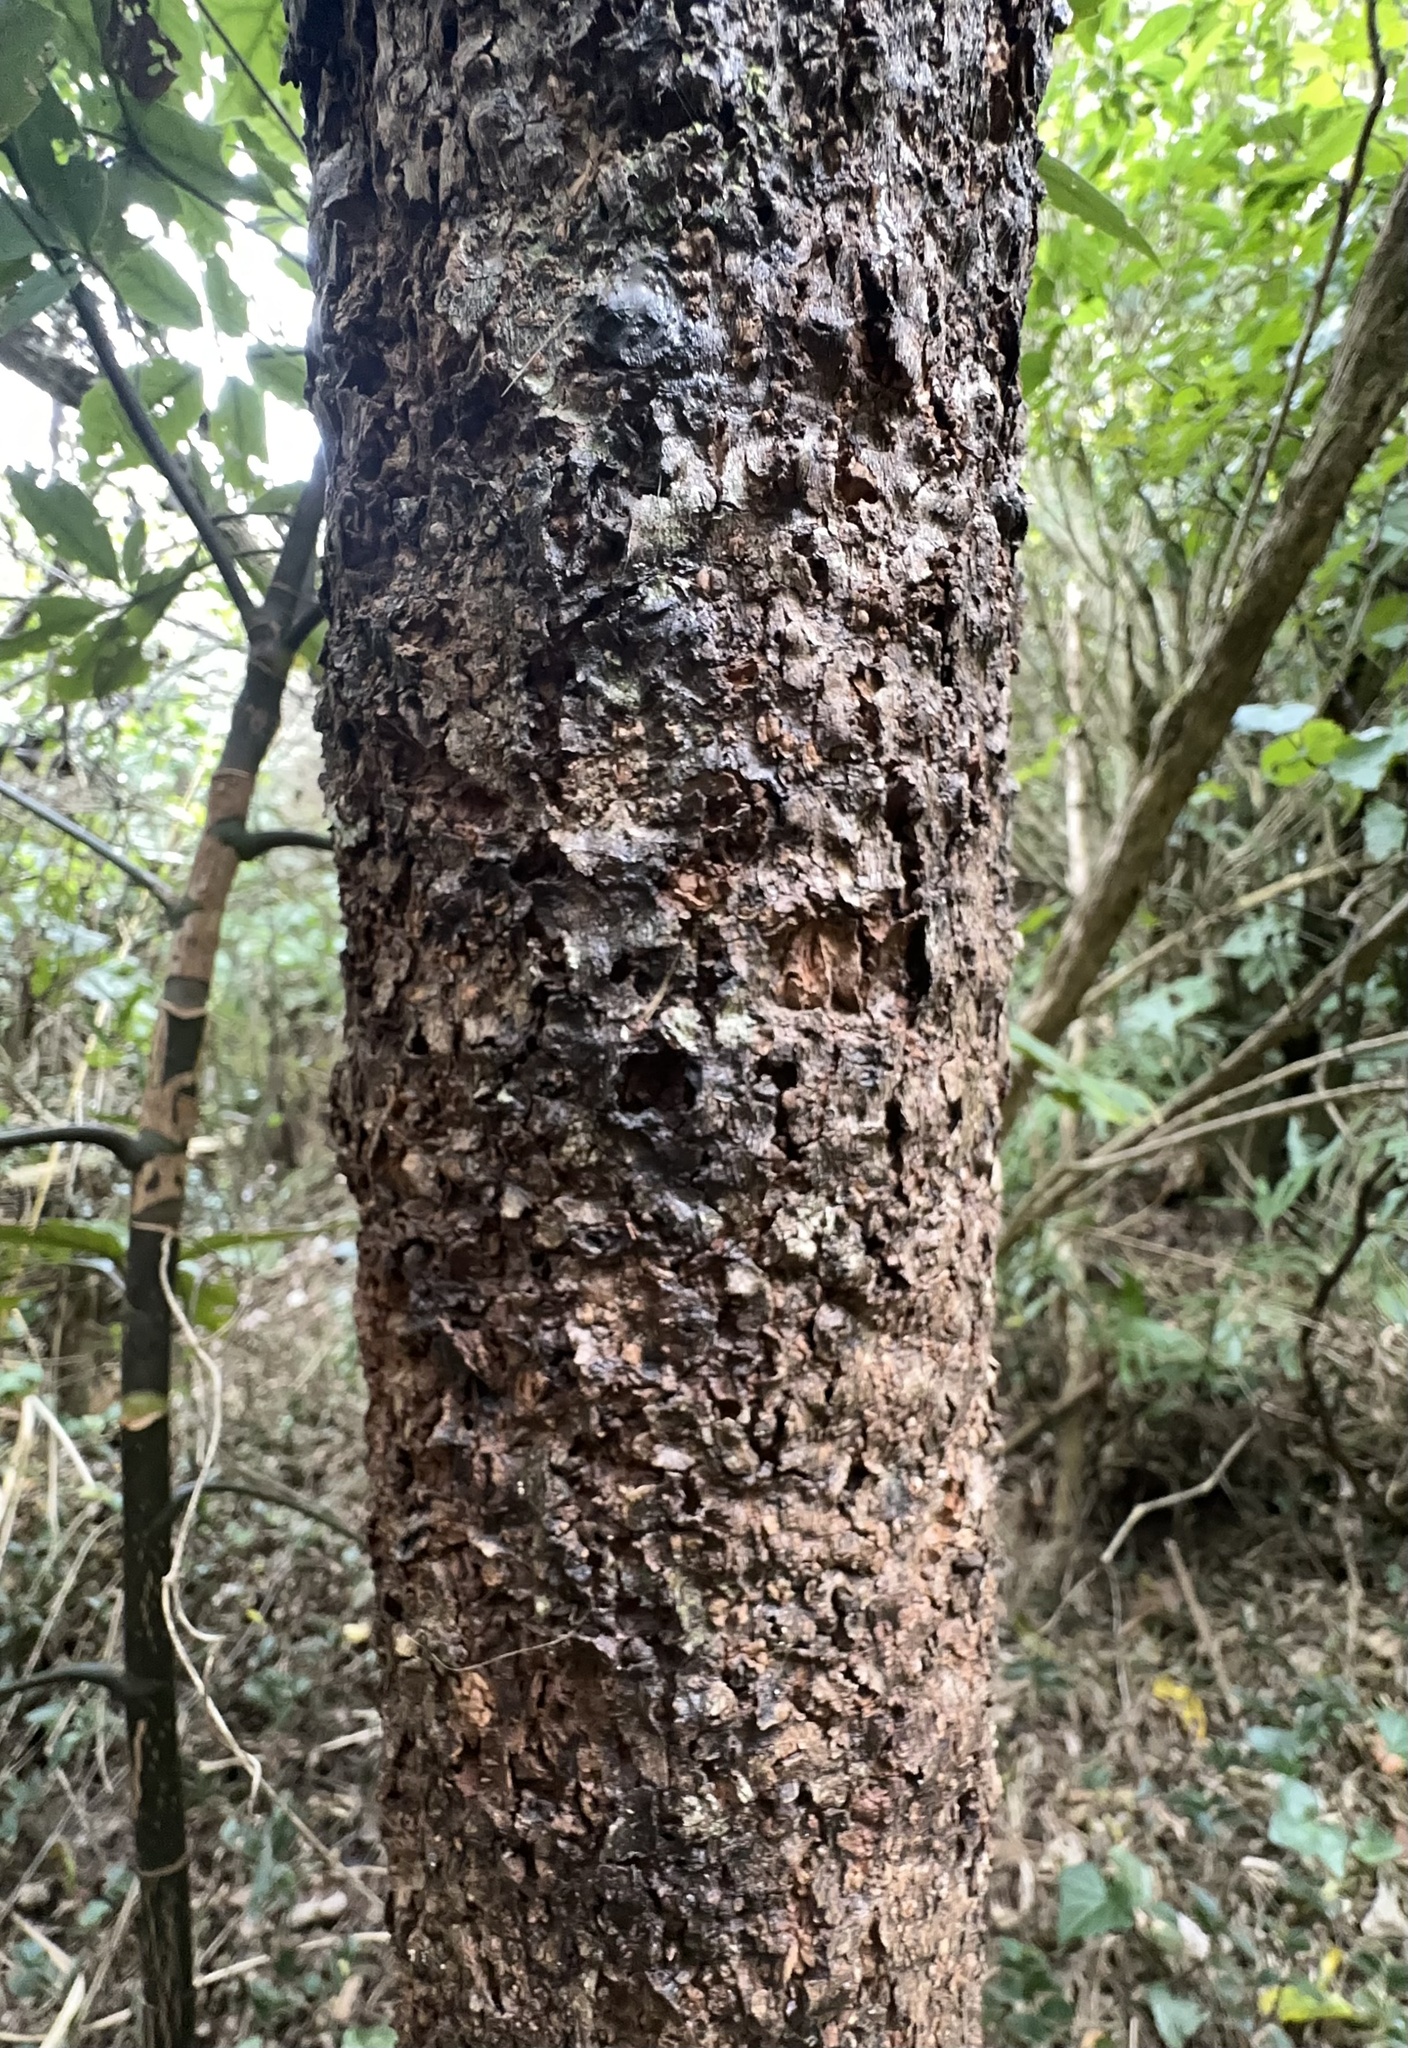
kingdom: Plantae
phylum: Tracheophyta
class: Magnoliopsida
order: Apiales
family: Araliaceae
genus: Neopanax
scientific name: Neopanax arboreus
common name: Five-fingers
